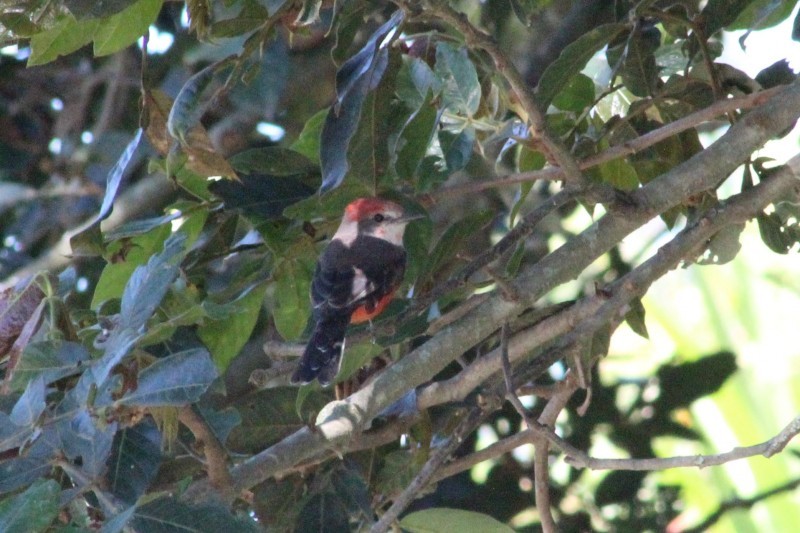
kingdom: Animalia
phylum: Chordata
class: Aves
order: Passeriformes
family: Tyrannidae
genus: Pyrocephalus
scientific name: Pyrocephalus rubinus
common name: Vermilion flycatcher
